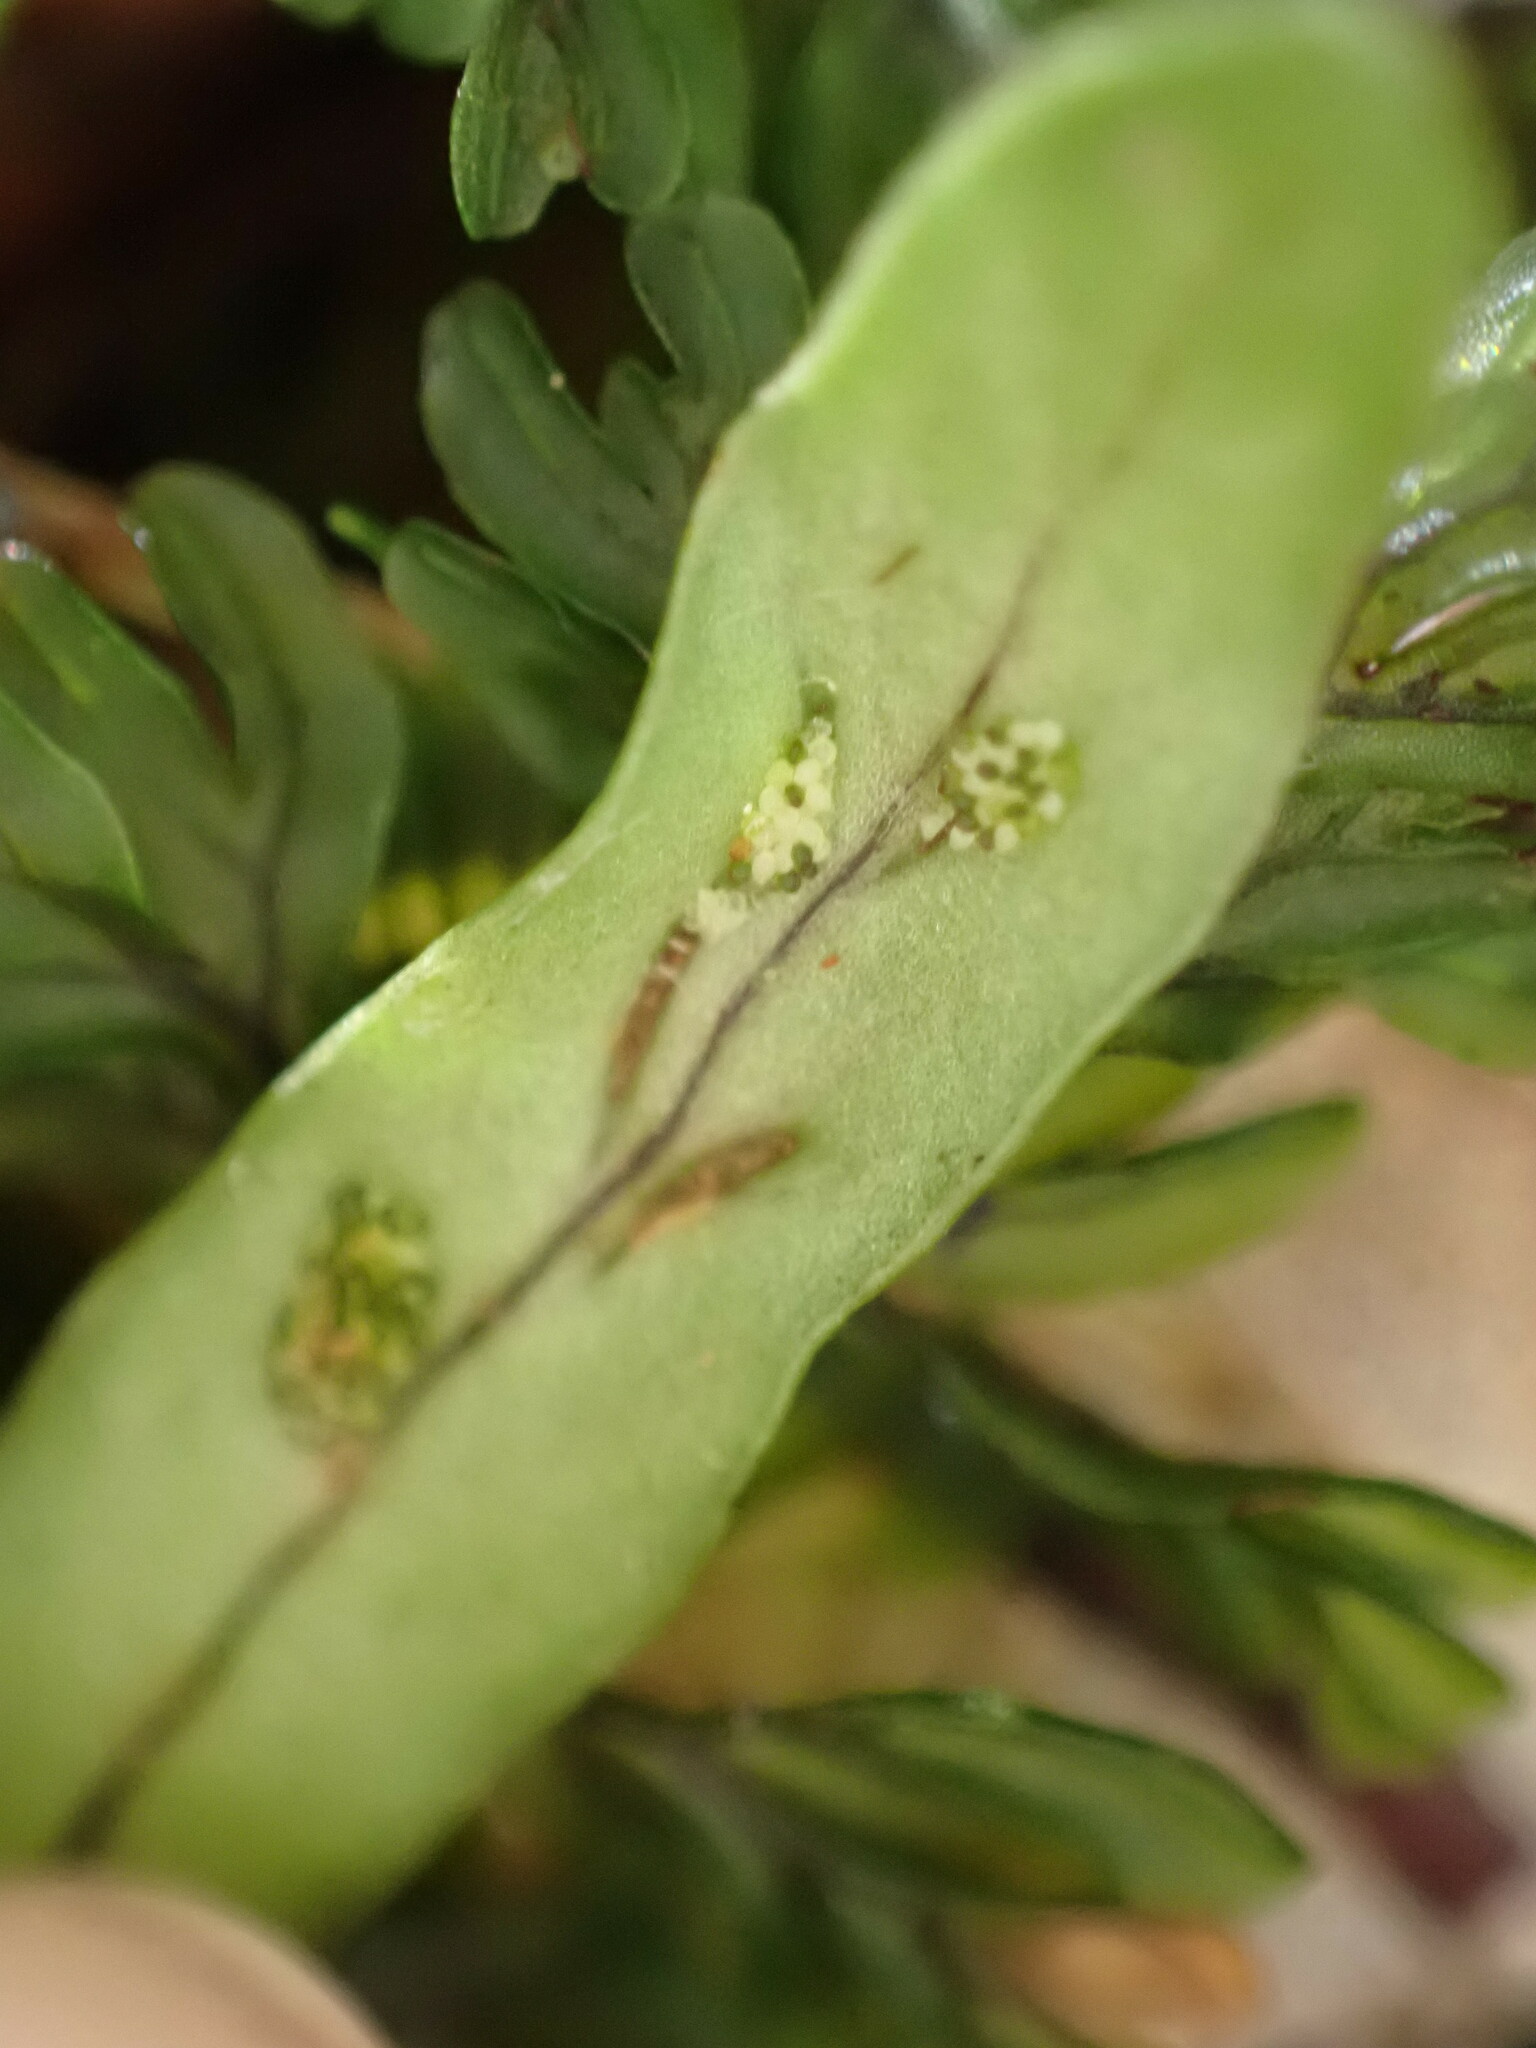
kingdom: Plantae
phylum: Tracheophyta
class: Polypodiopsida
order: Polypodiales
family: Polypodiaceae
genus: Notogrammitis
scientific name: Notogrammitis ciliata
